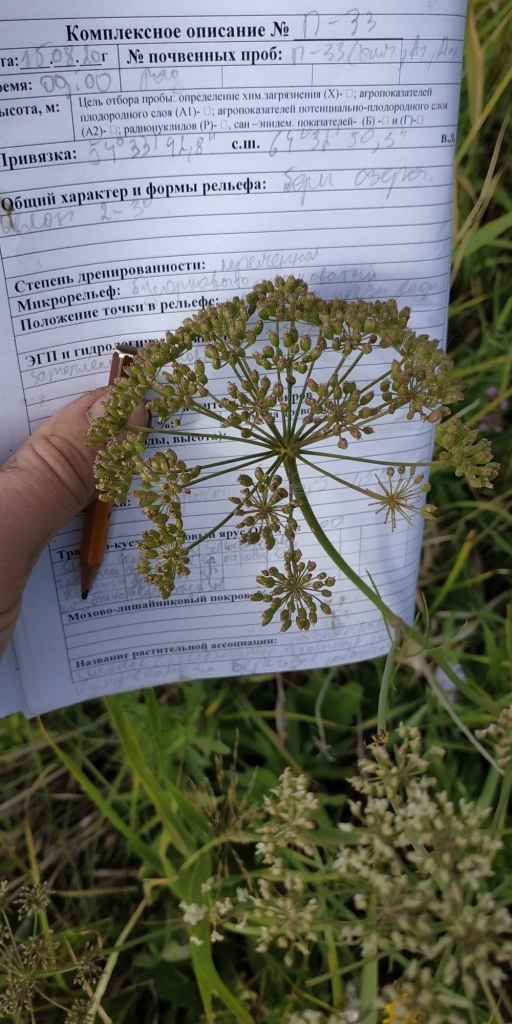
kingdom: Plantae
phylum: Tracheophyta
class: Magnoliopsida
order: Apiales
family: Apiaceae
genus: Cenolophium
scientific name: Cenolophium fischeri
